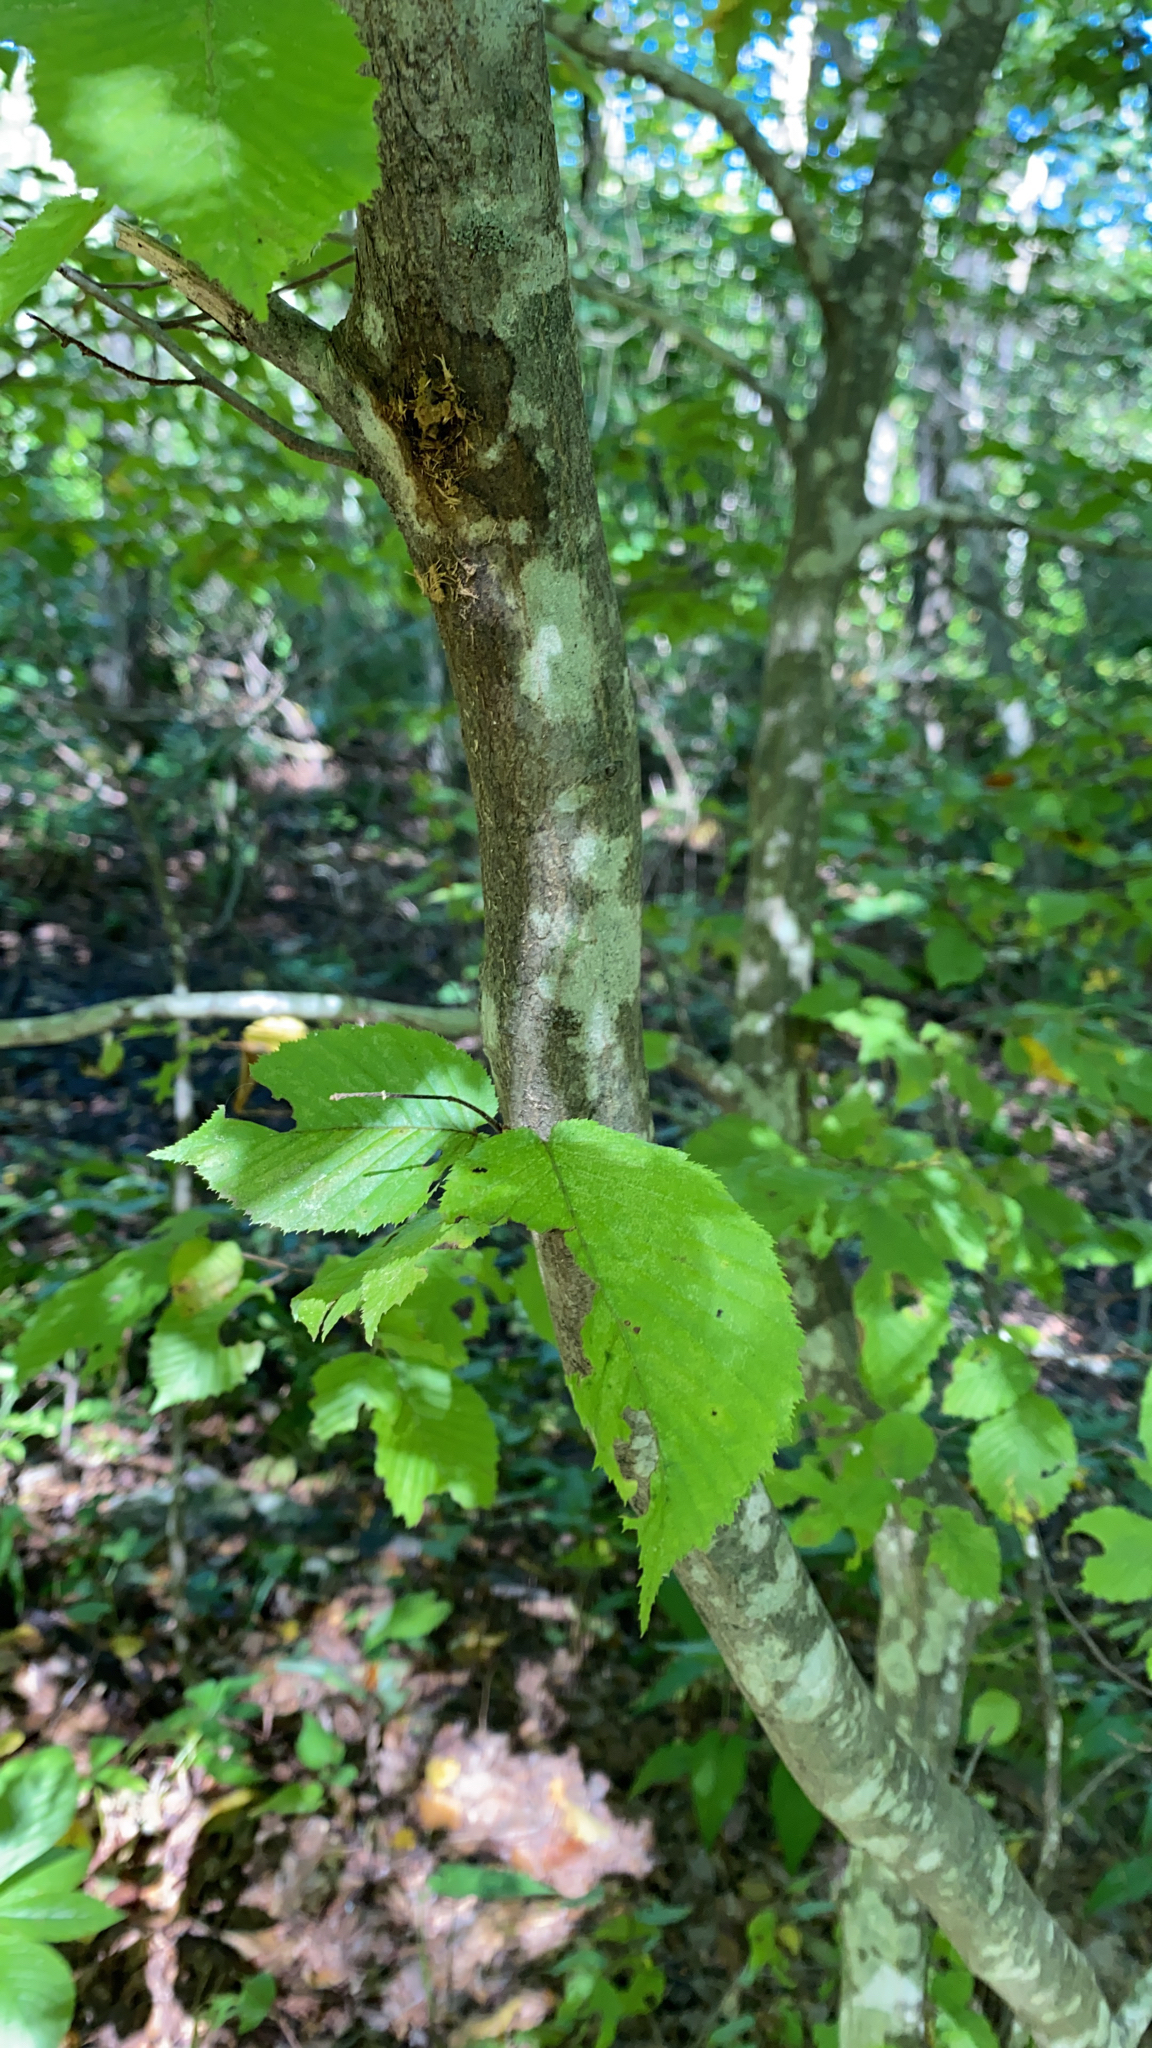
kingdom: Plantae
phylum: Tracheophyta
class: Magnoliopsida
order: Fagales
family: Betulaceae
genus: Carpinus
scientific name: Carpinus caroliniana
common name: American hornbeam
